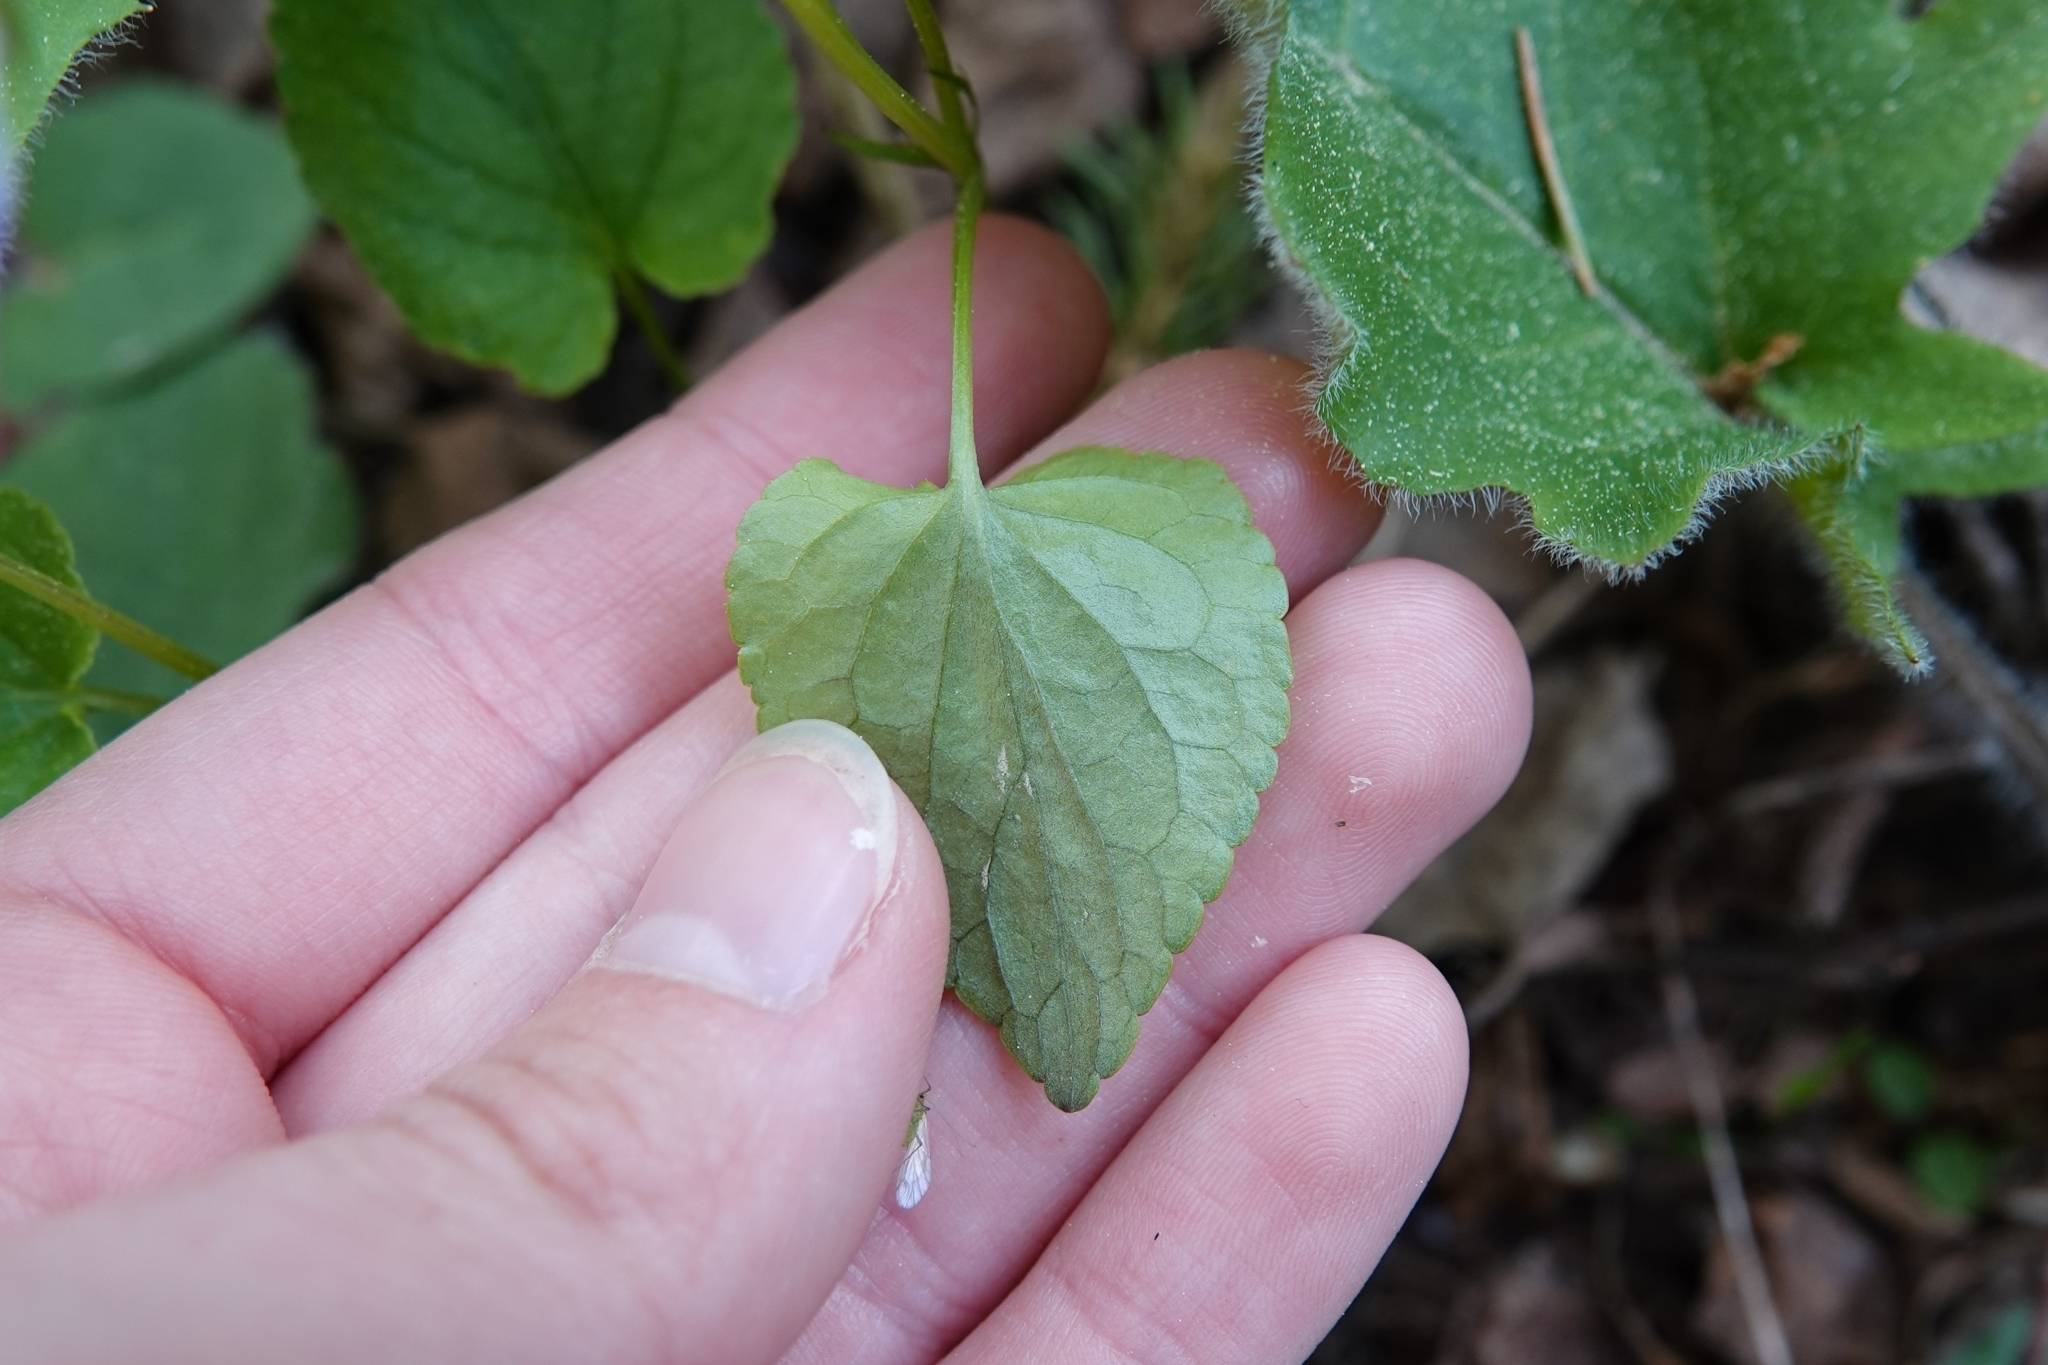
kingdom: Plantae
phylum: Tracheophyta
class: Magnoliopsida
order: Malpighiales
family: Violaceae
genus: Viola
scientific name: Viola riviniana
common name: Common dog-violet
